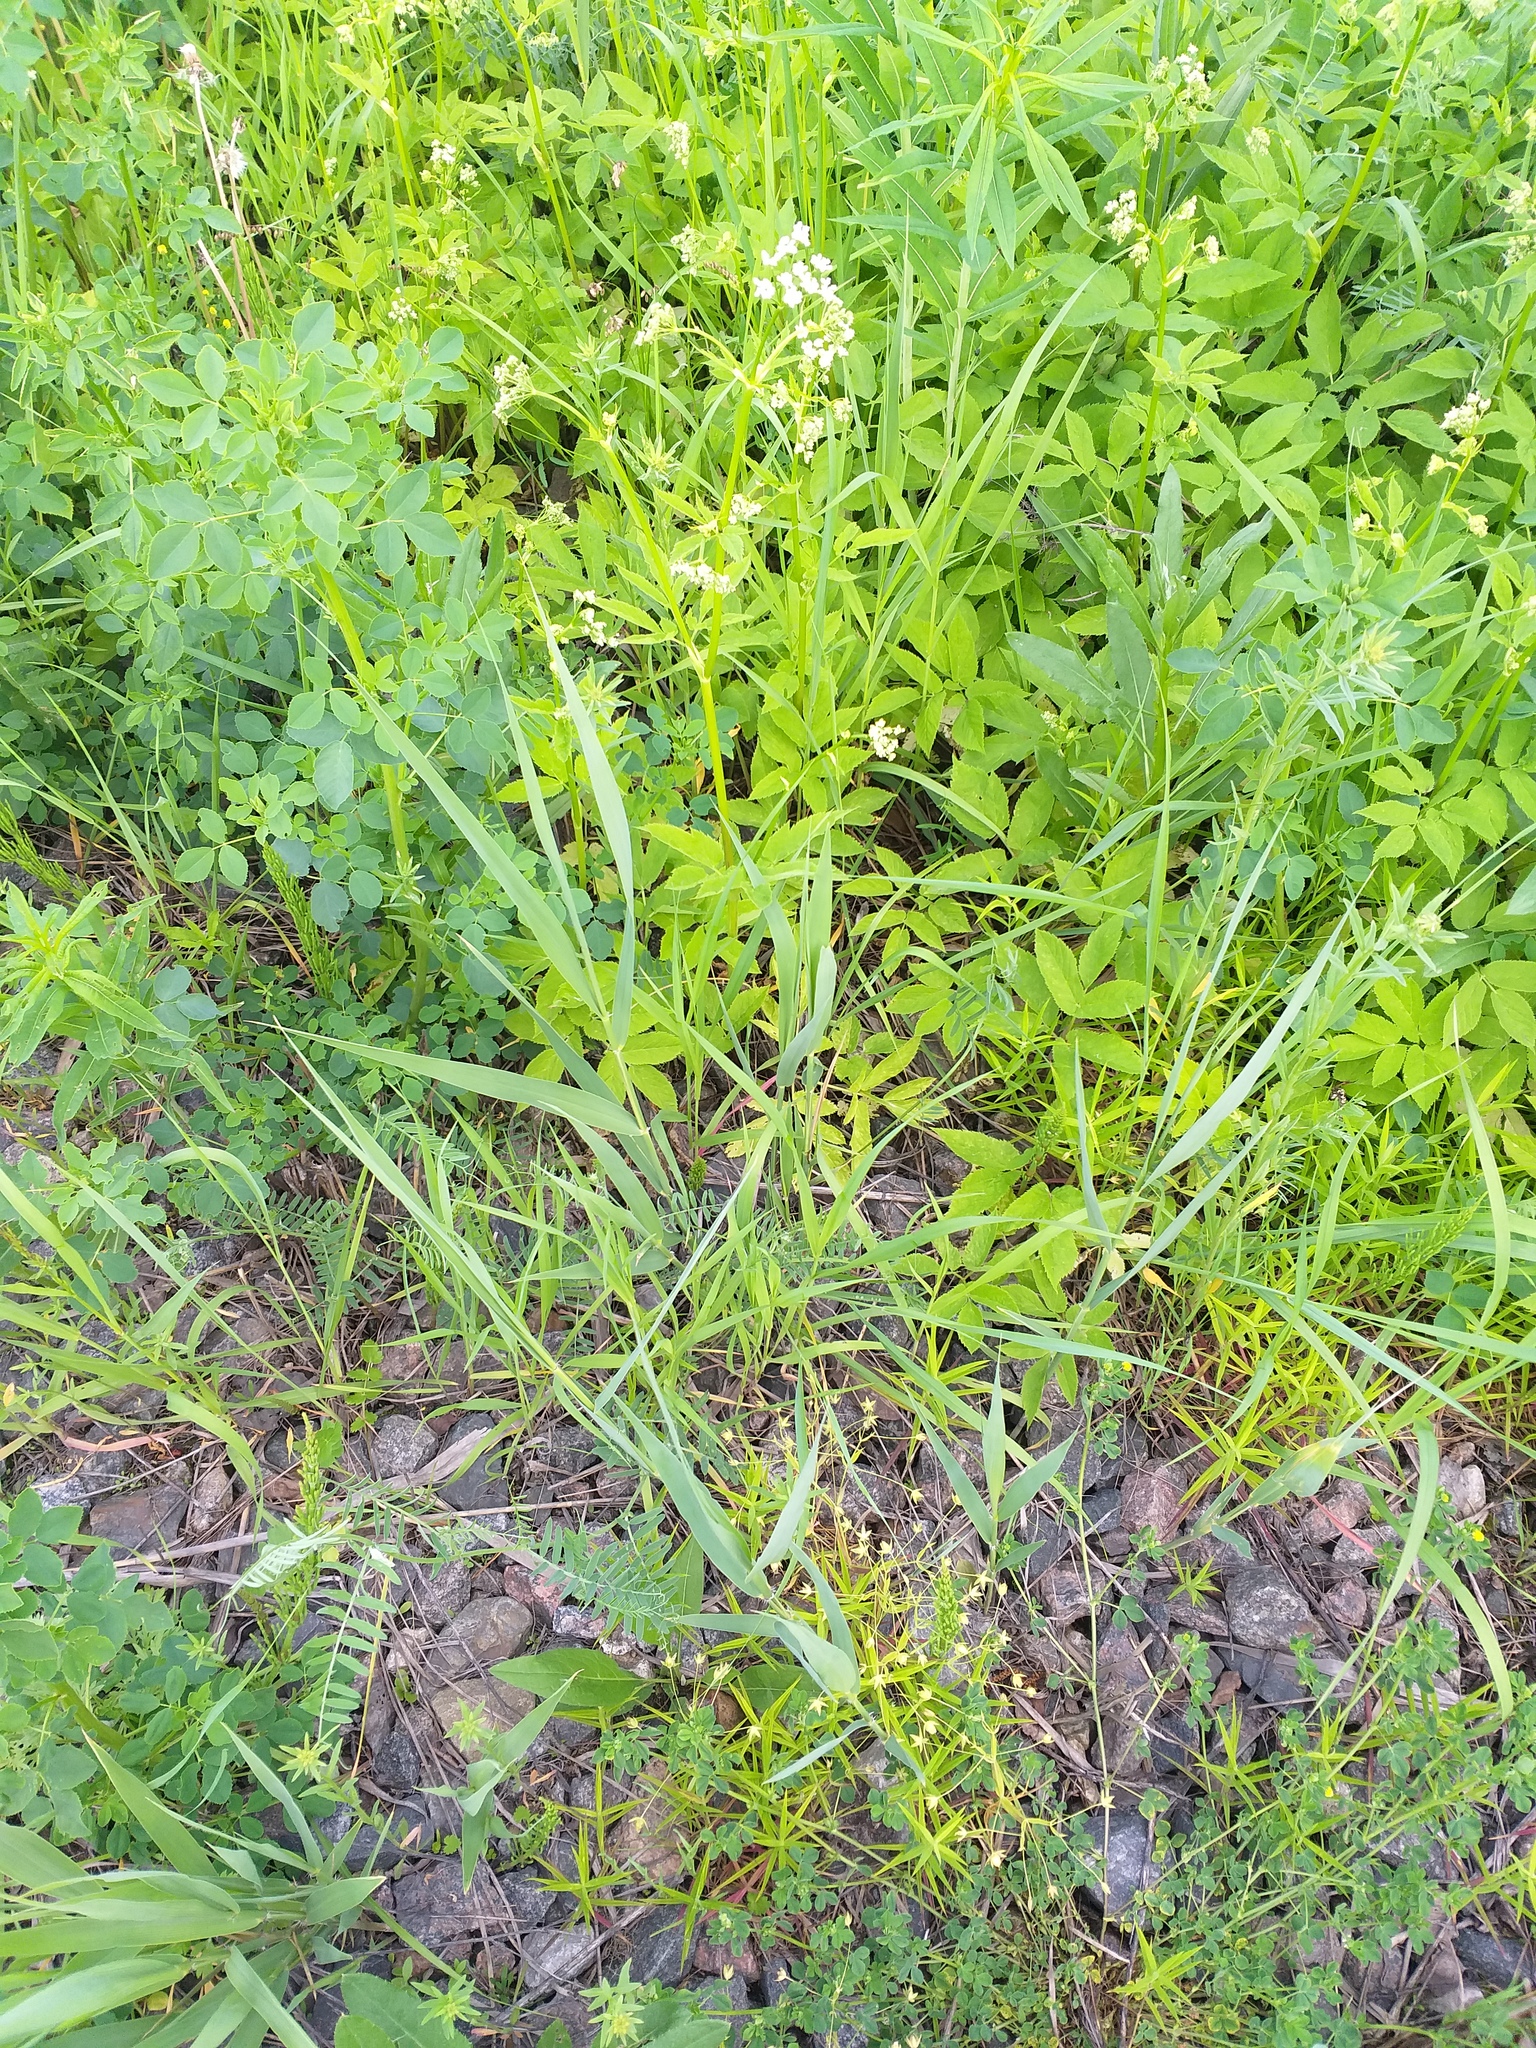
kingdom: Plantae
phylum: Tracheophyta
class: Liliopsida
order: Poales
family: Poaceae
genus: Phragmites
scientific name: Phragmites australis
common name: Common reed
